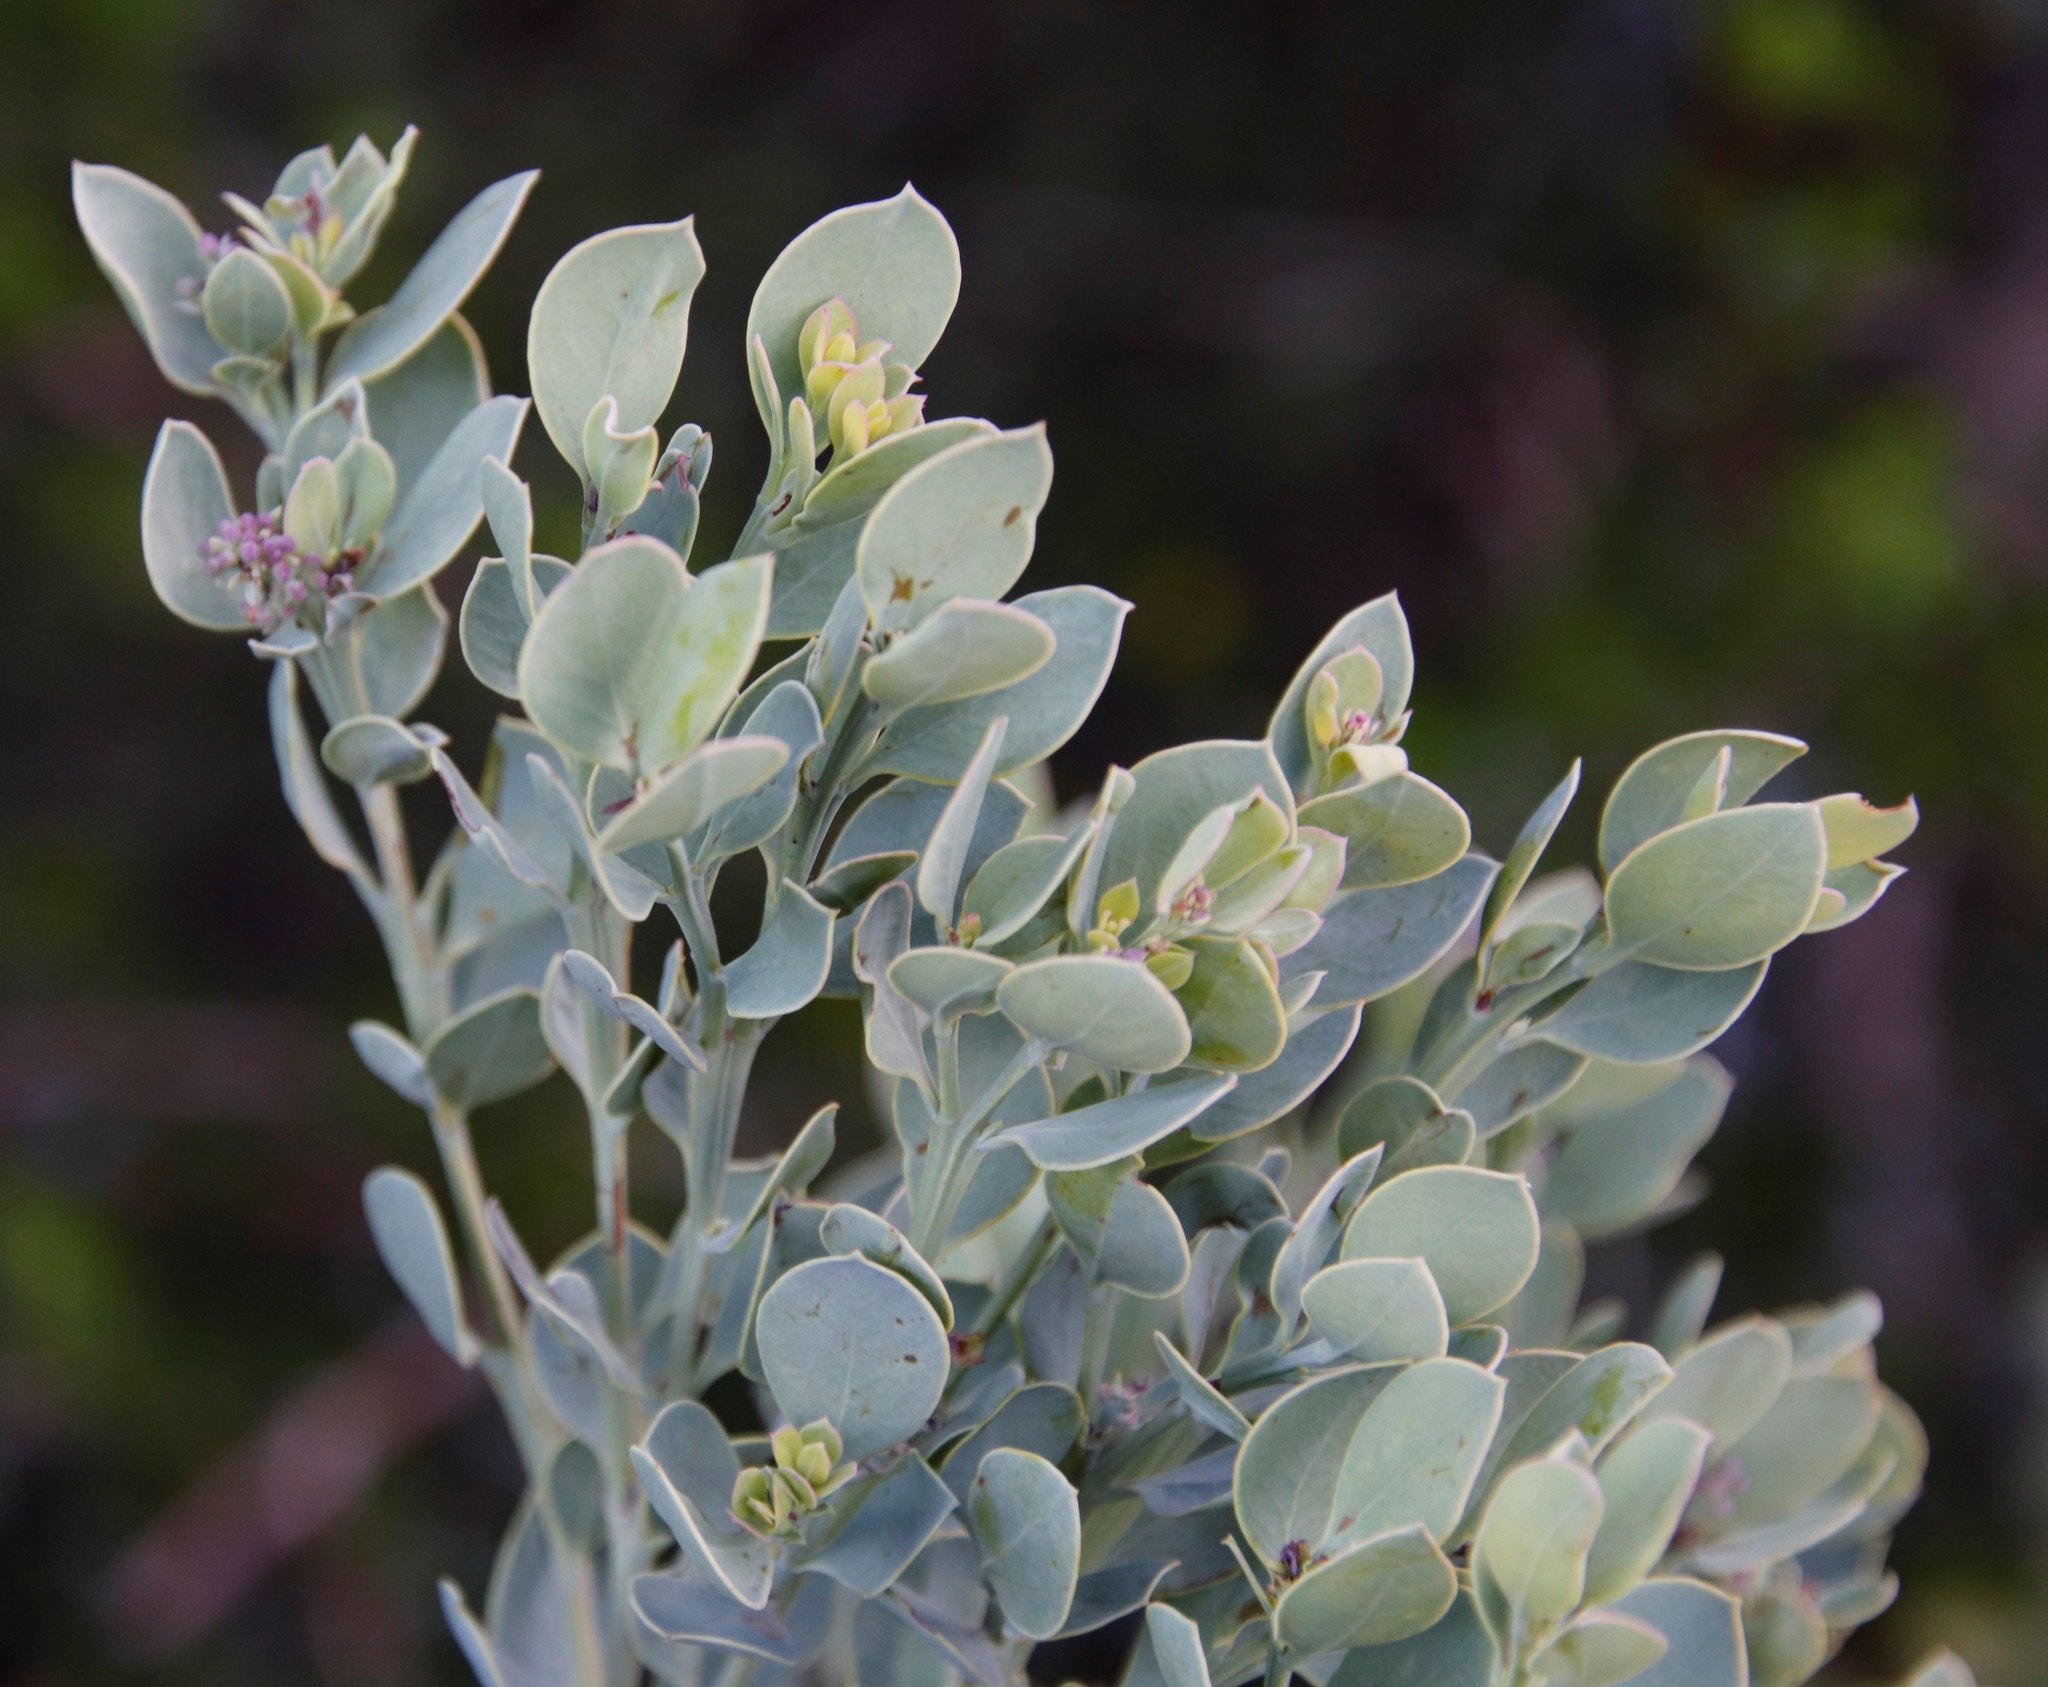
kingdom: Plantae
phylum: Tracheophyta
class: Magnoliopsida
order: Santalales
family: Santalaceae
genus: Osyris
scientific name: Osyris compressa
